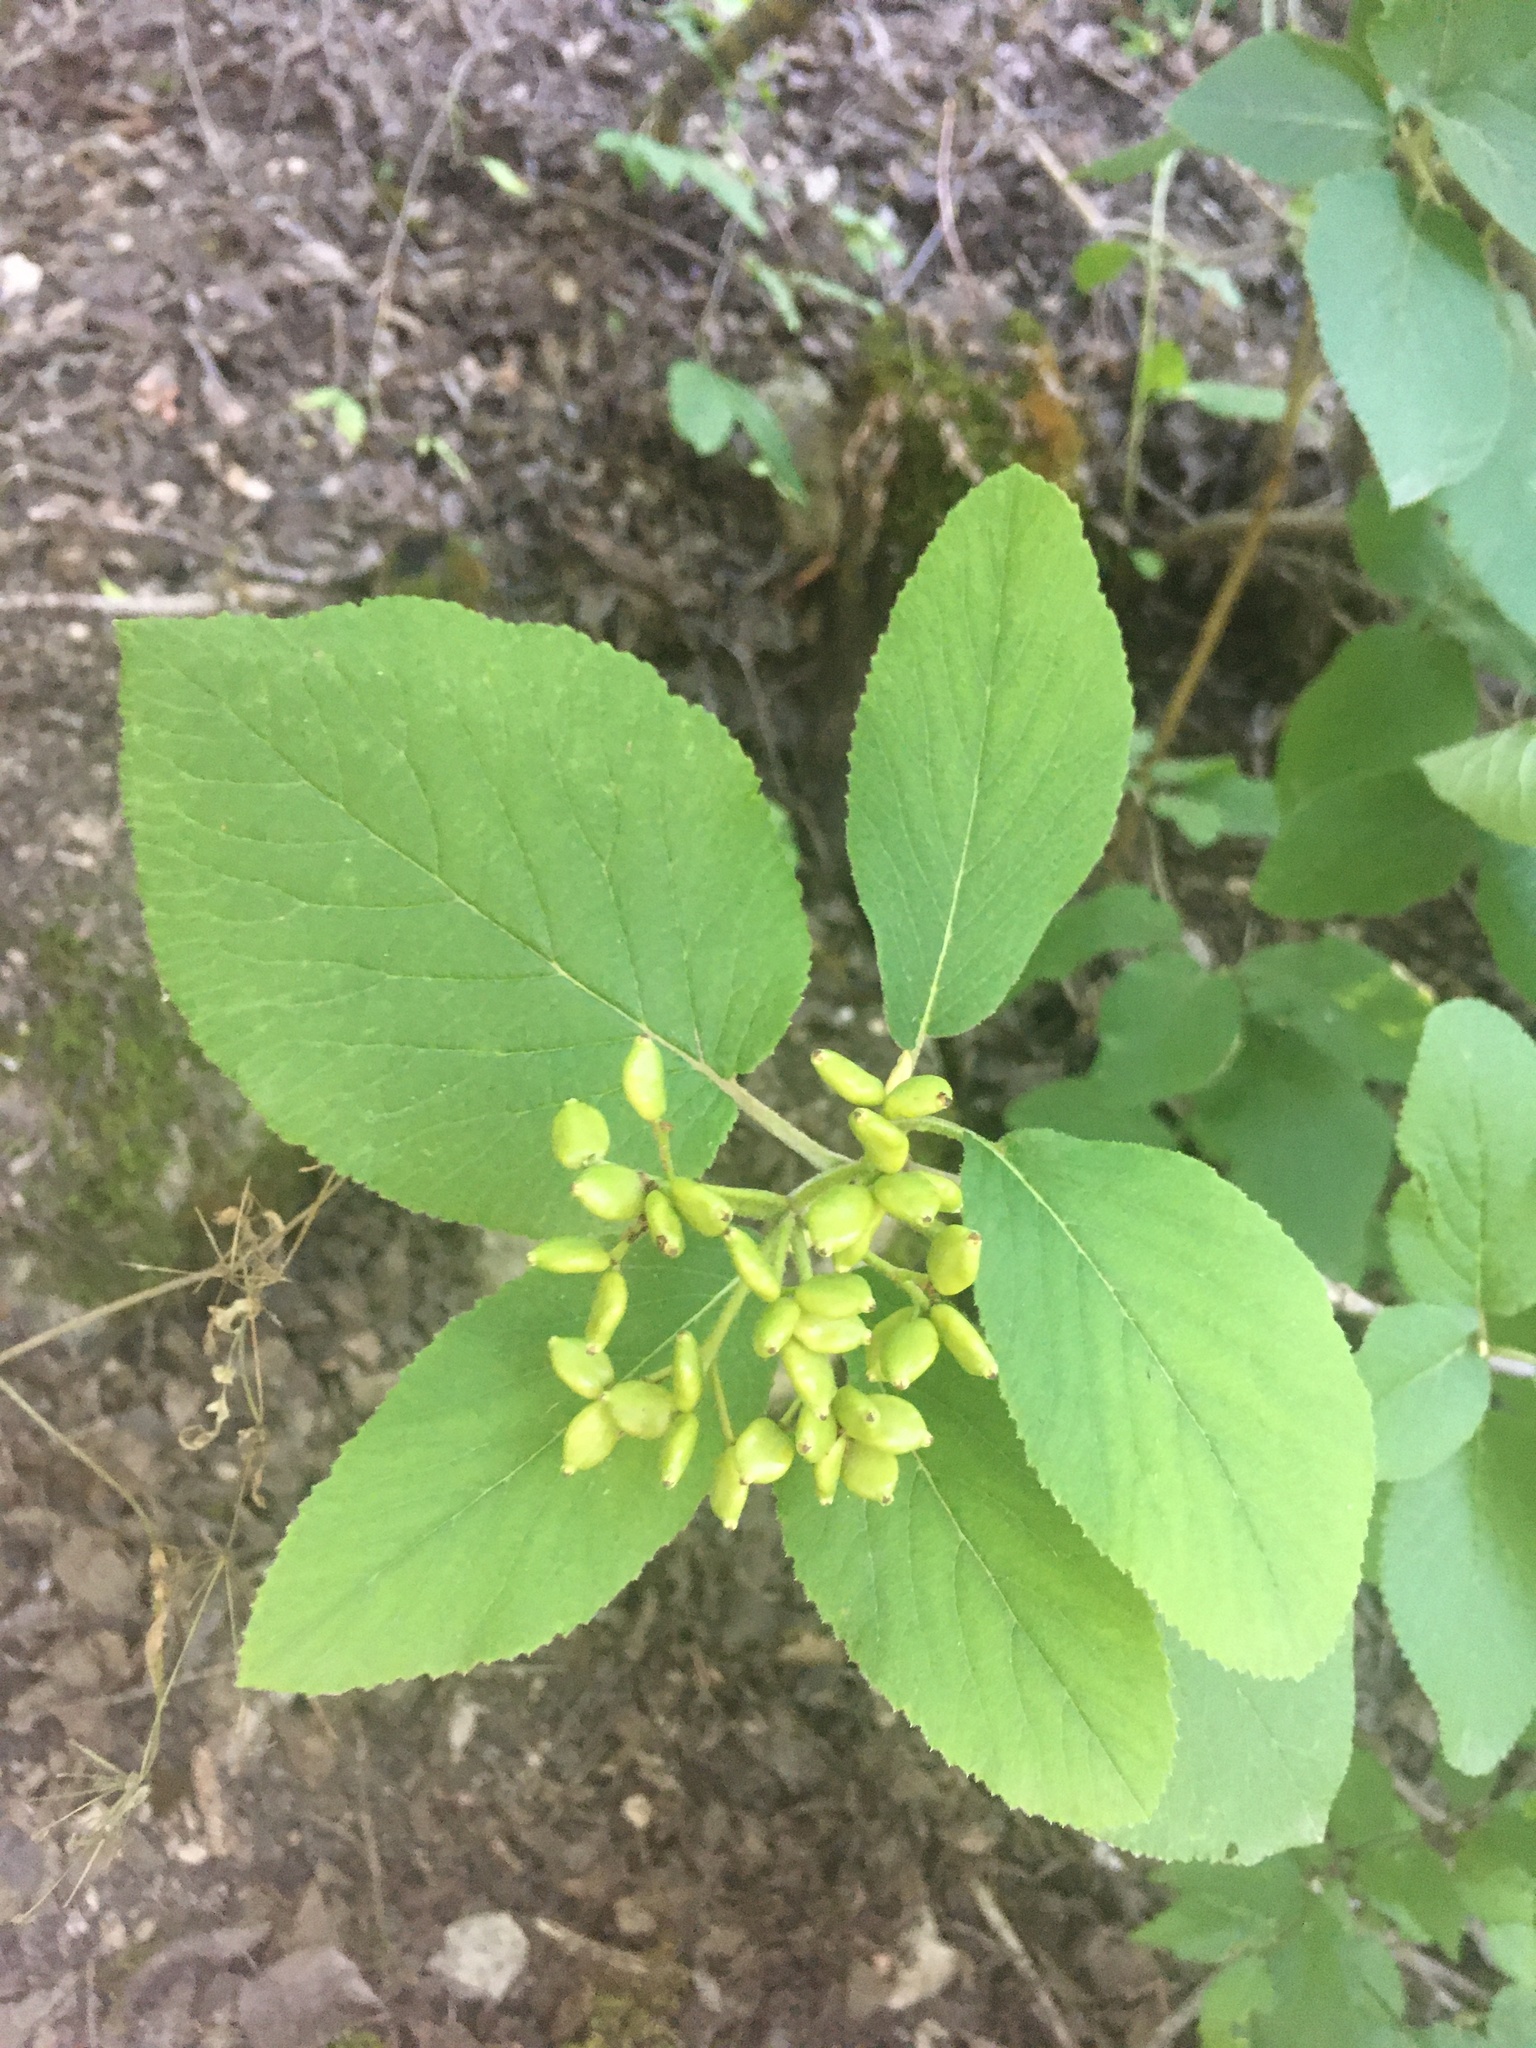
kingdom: Plantae
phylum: Tracheophyta
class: Magnoliopsida
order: Dipsacales
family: Viburnaceae
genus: Viburnum
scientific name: Viburnum lantana
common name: Wayfaring tree
